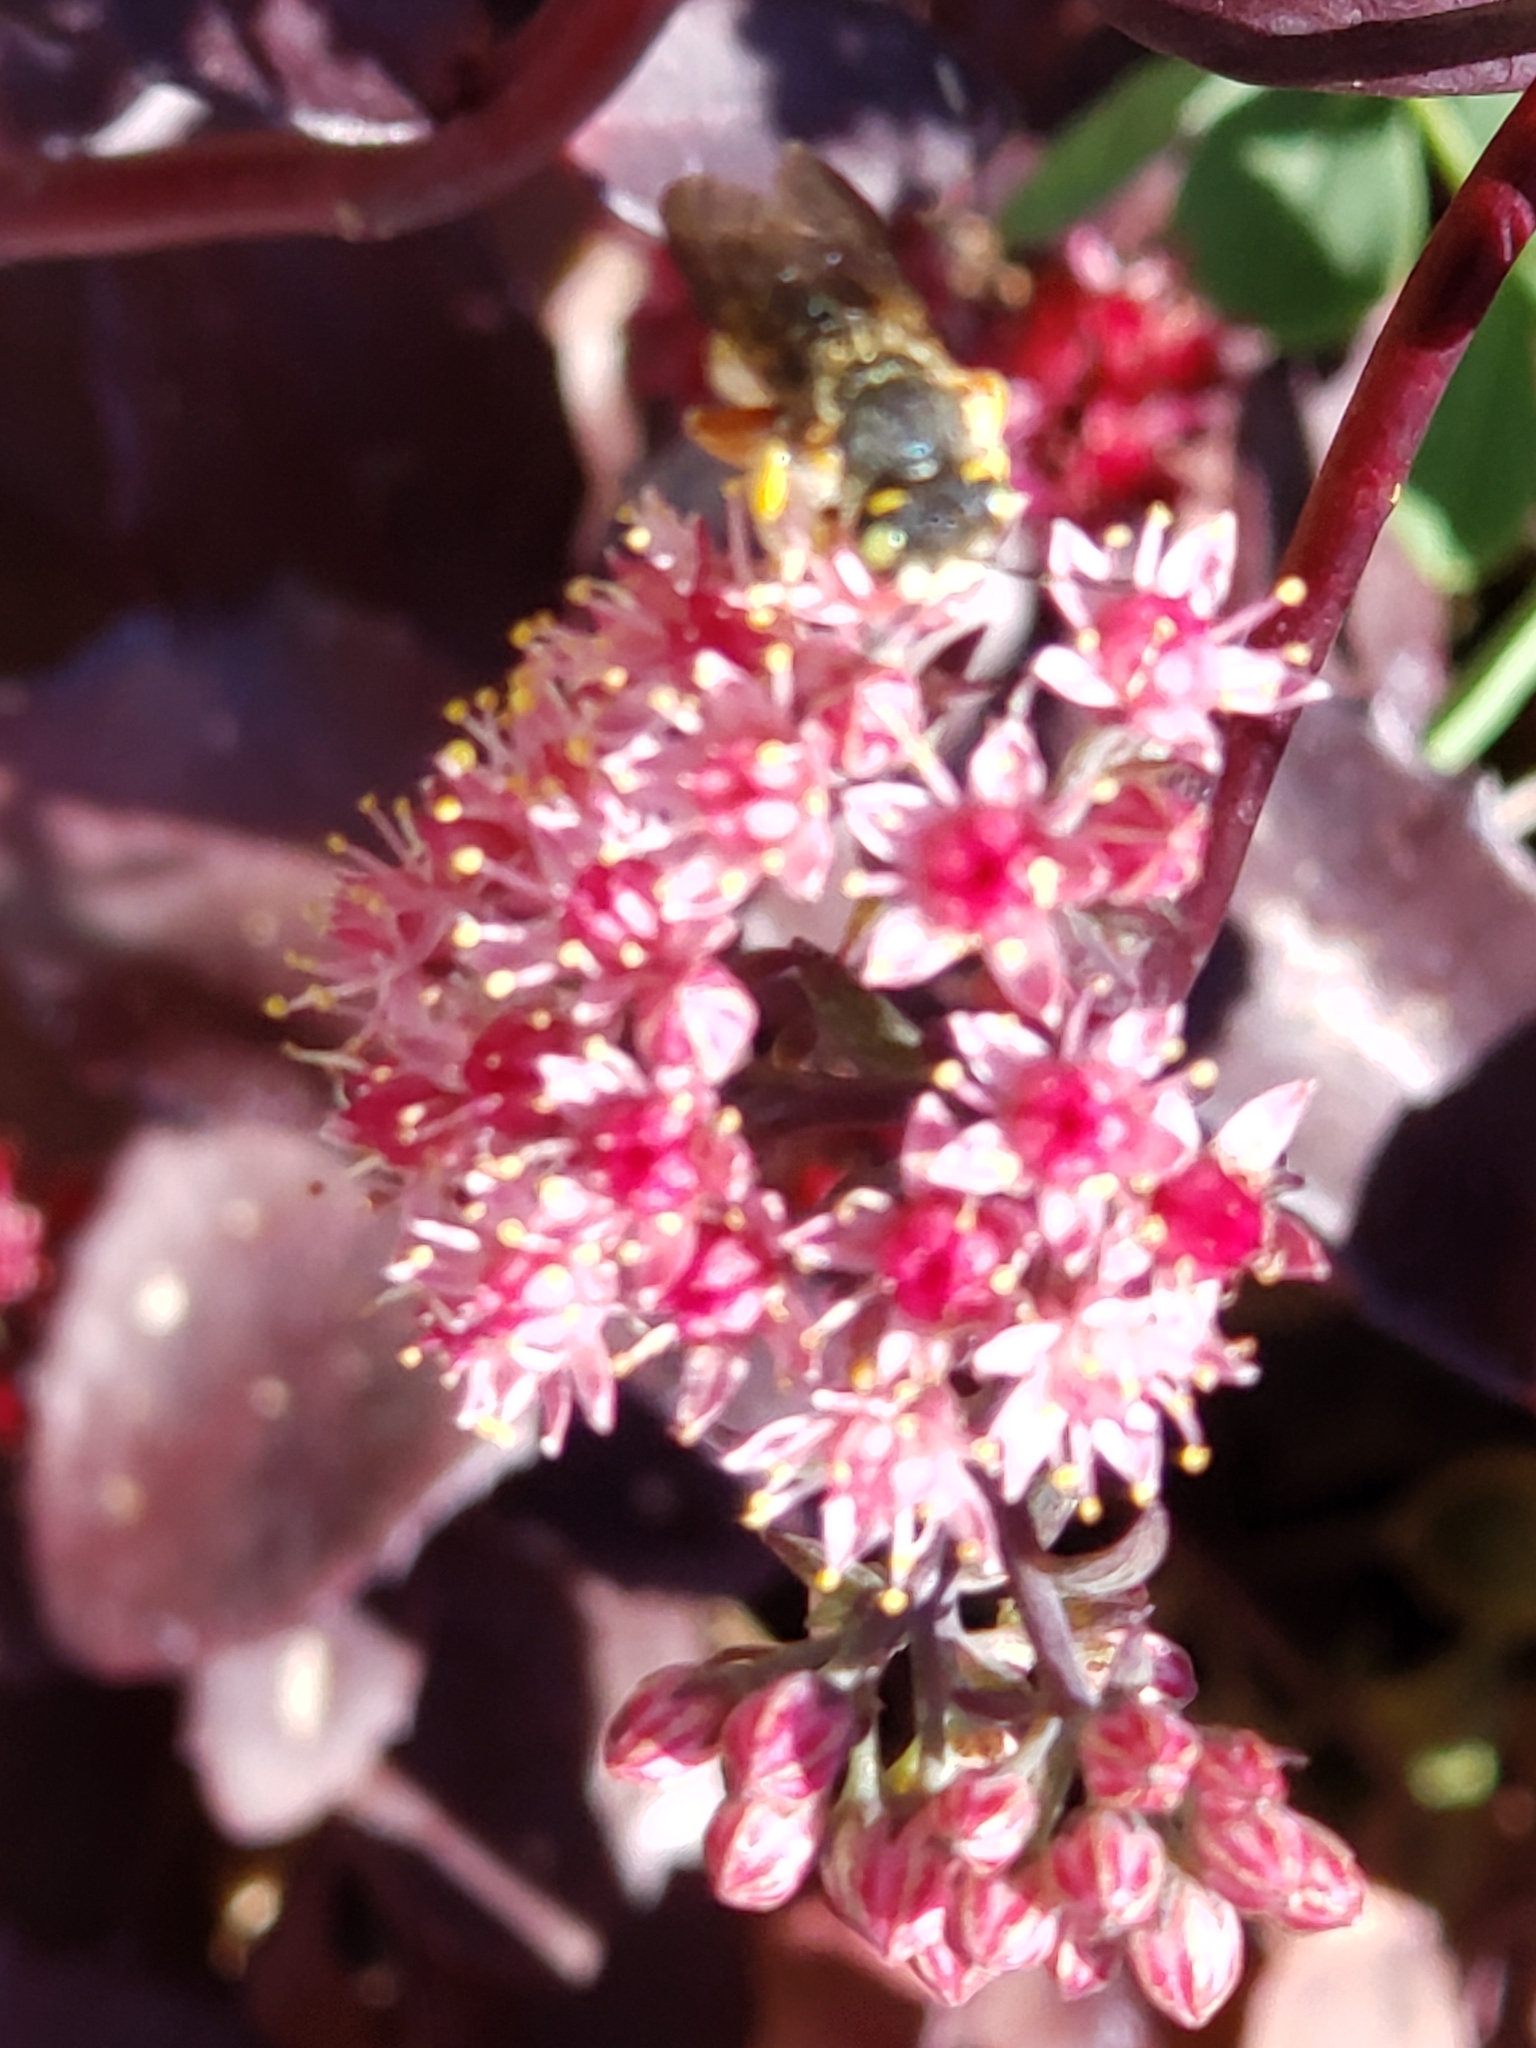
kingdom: Animalia
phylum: Arthropoda
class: Insecta
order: Hymenoptera
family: Megachilidae
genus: Anthidium
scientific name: Anthidium oblongatum
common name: Oblong wool carder bee
